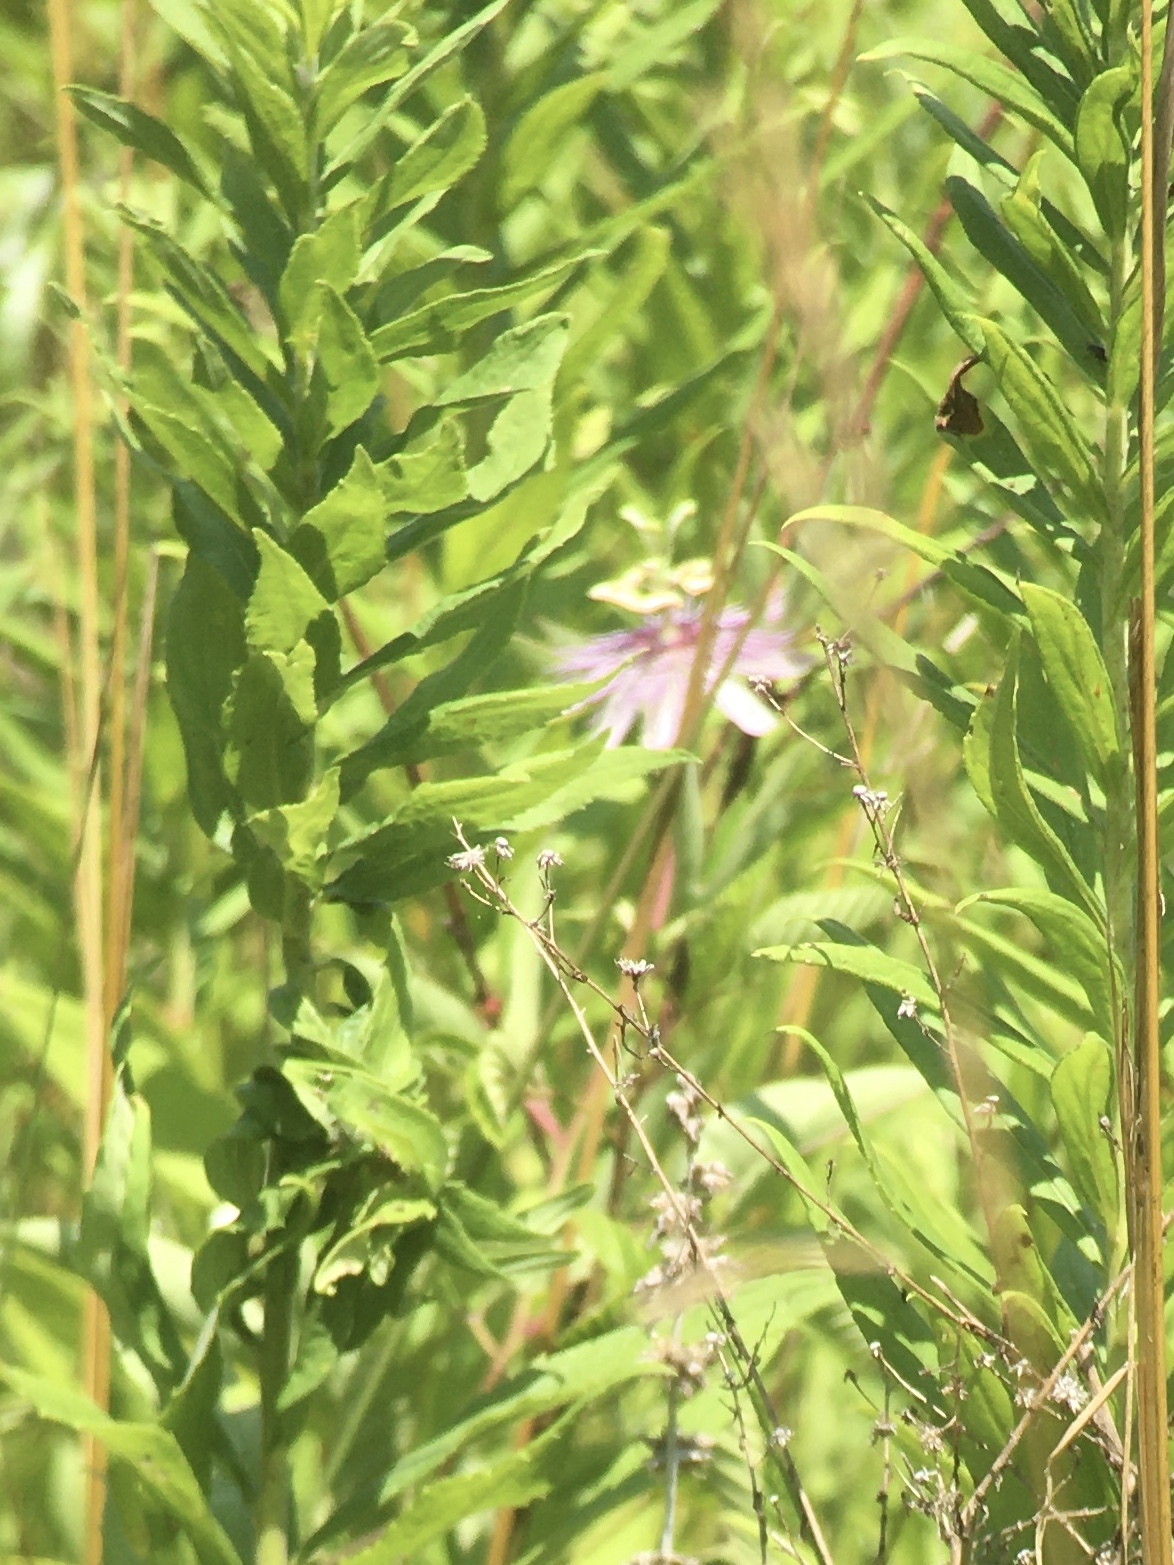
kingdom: Plantae
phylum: Tracheophyta
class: Magnoliopsida
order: Malpighiales
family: Passifloraceae
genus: Passiflora
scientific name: Passiflora incarnata
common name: Apricot-vine
